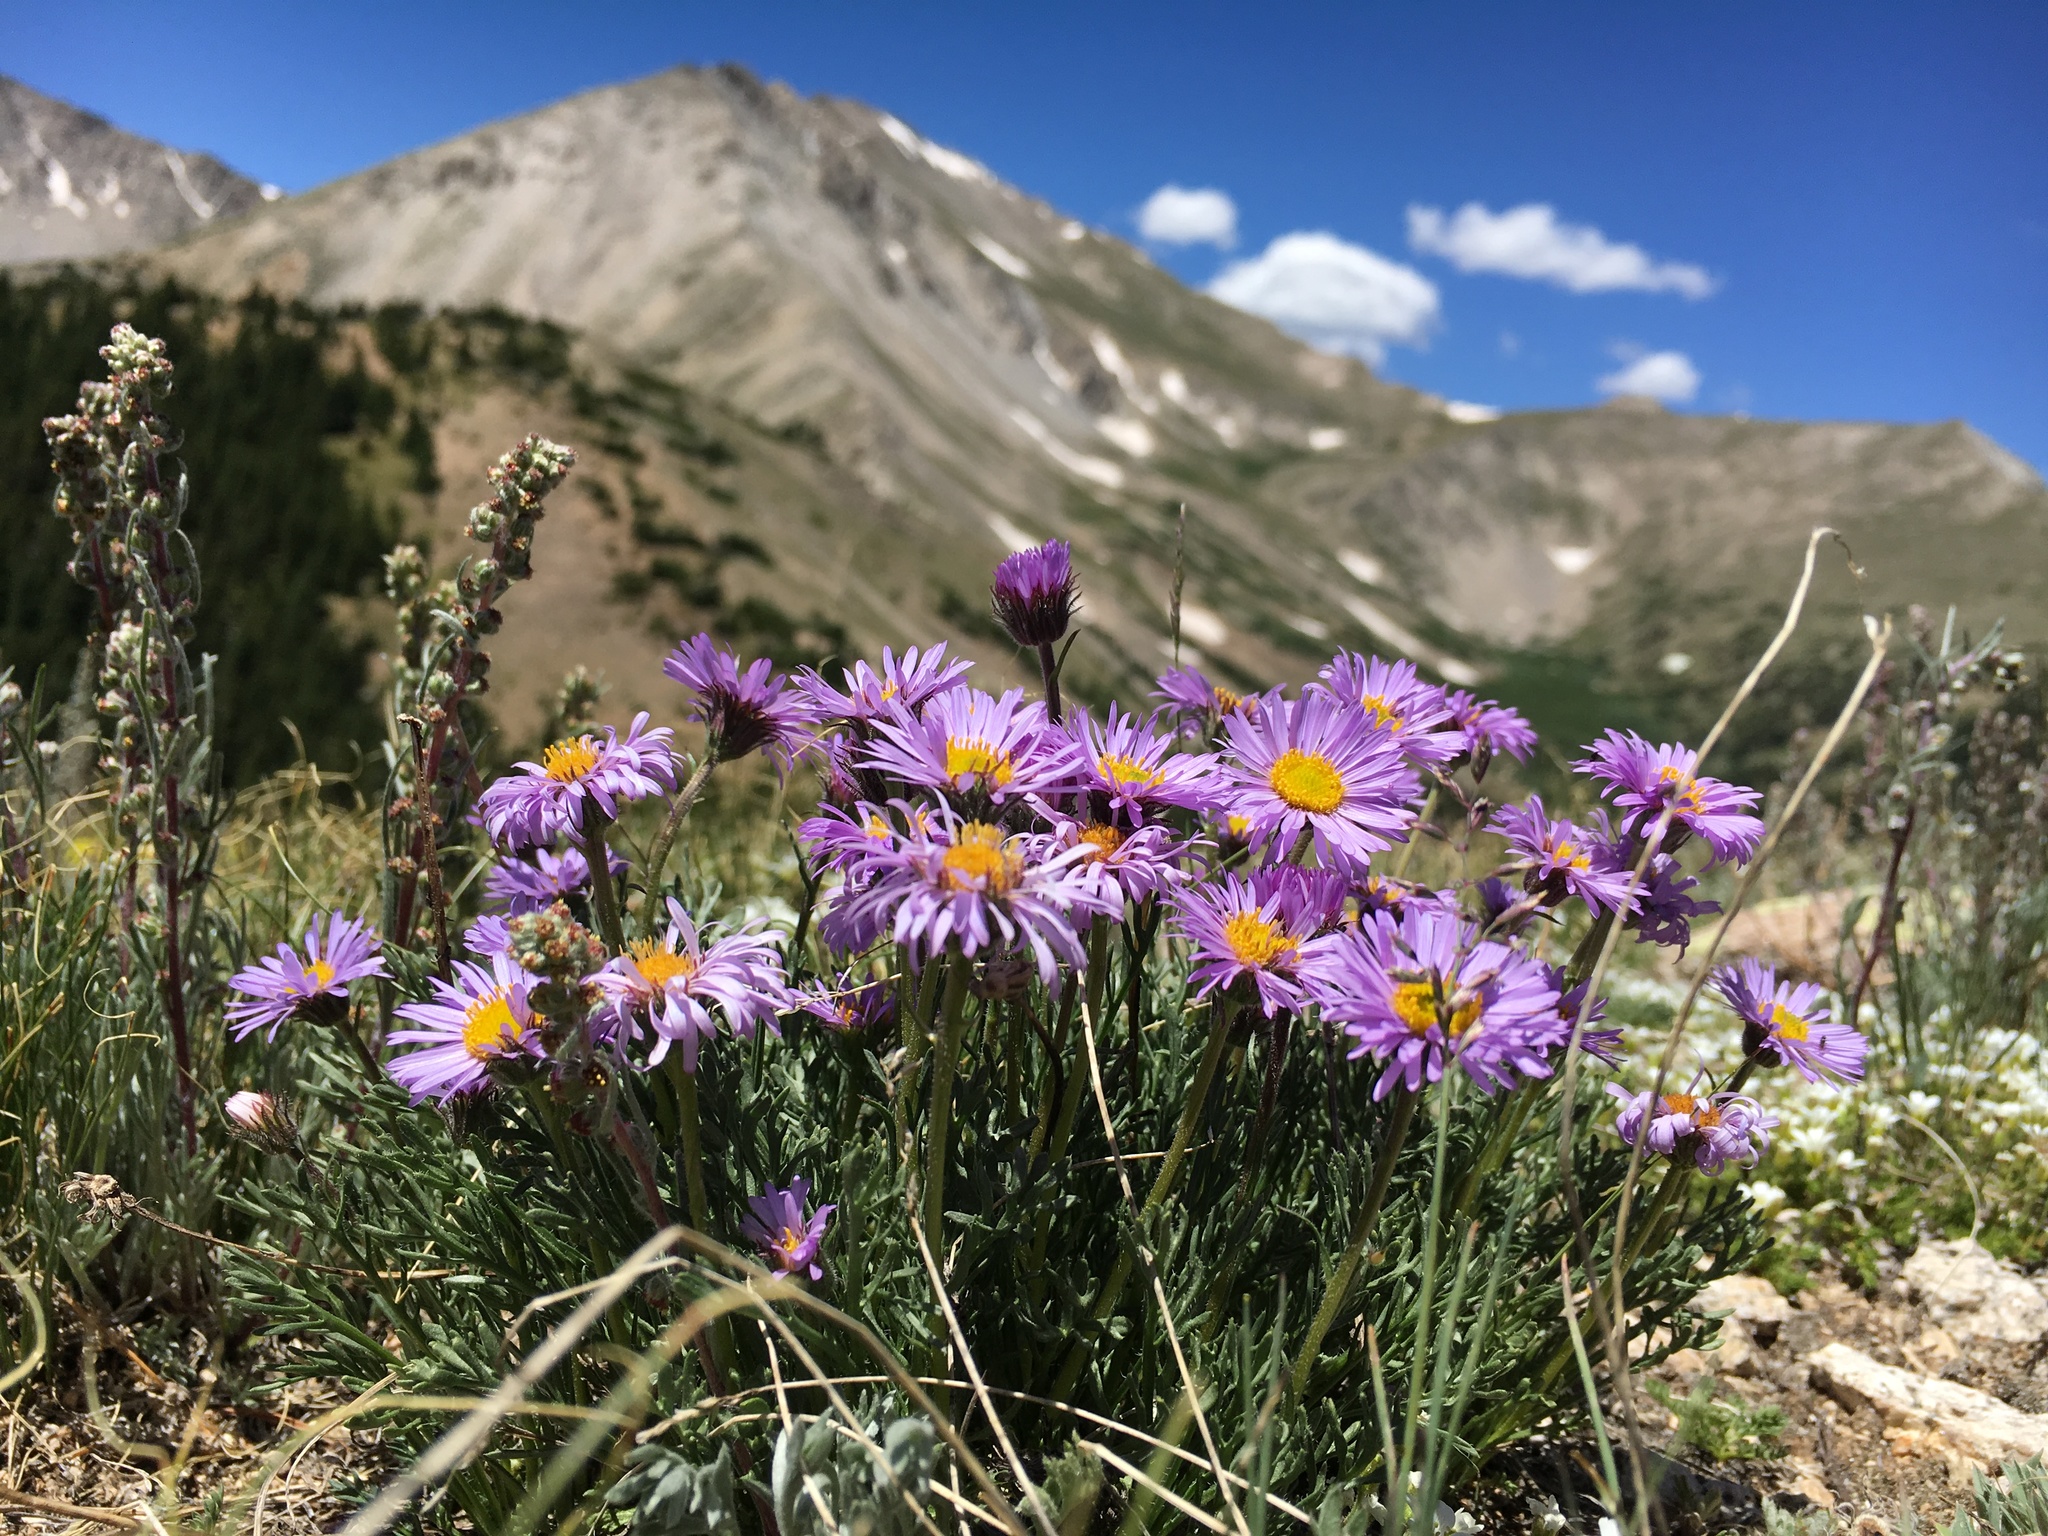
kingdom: Plantae
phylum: Tracheophyta
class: Magnoliopsida
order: Asterales
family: Asteraceae
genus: Erigeron
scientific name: Erigeron pinnatisectus
